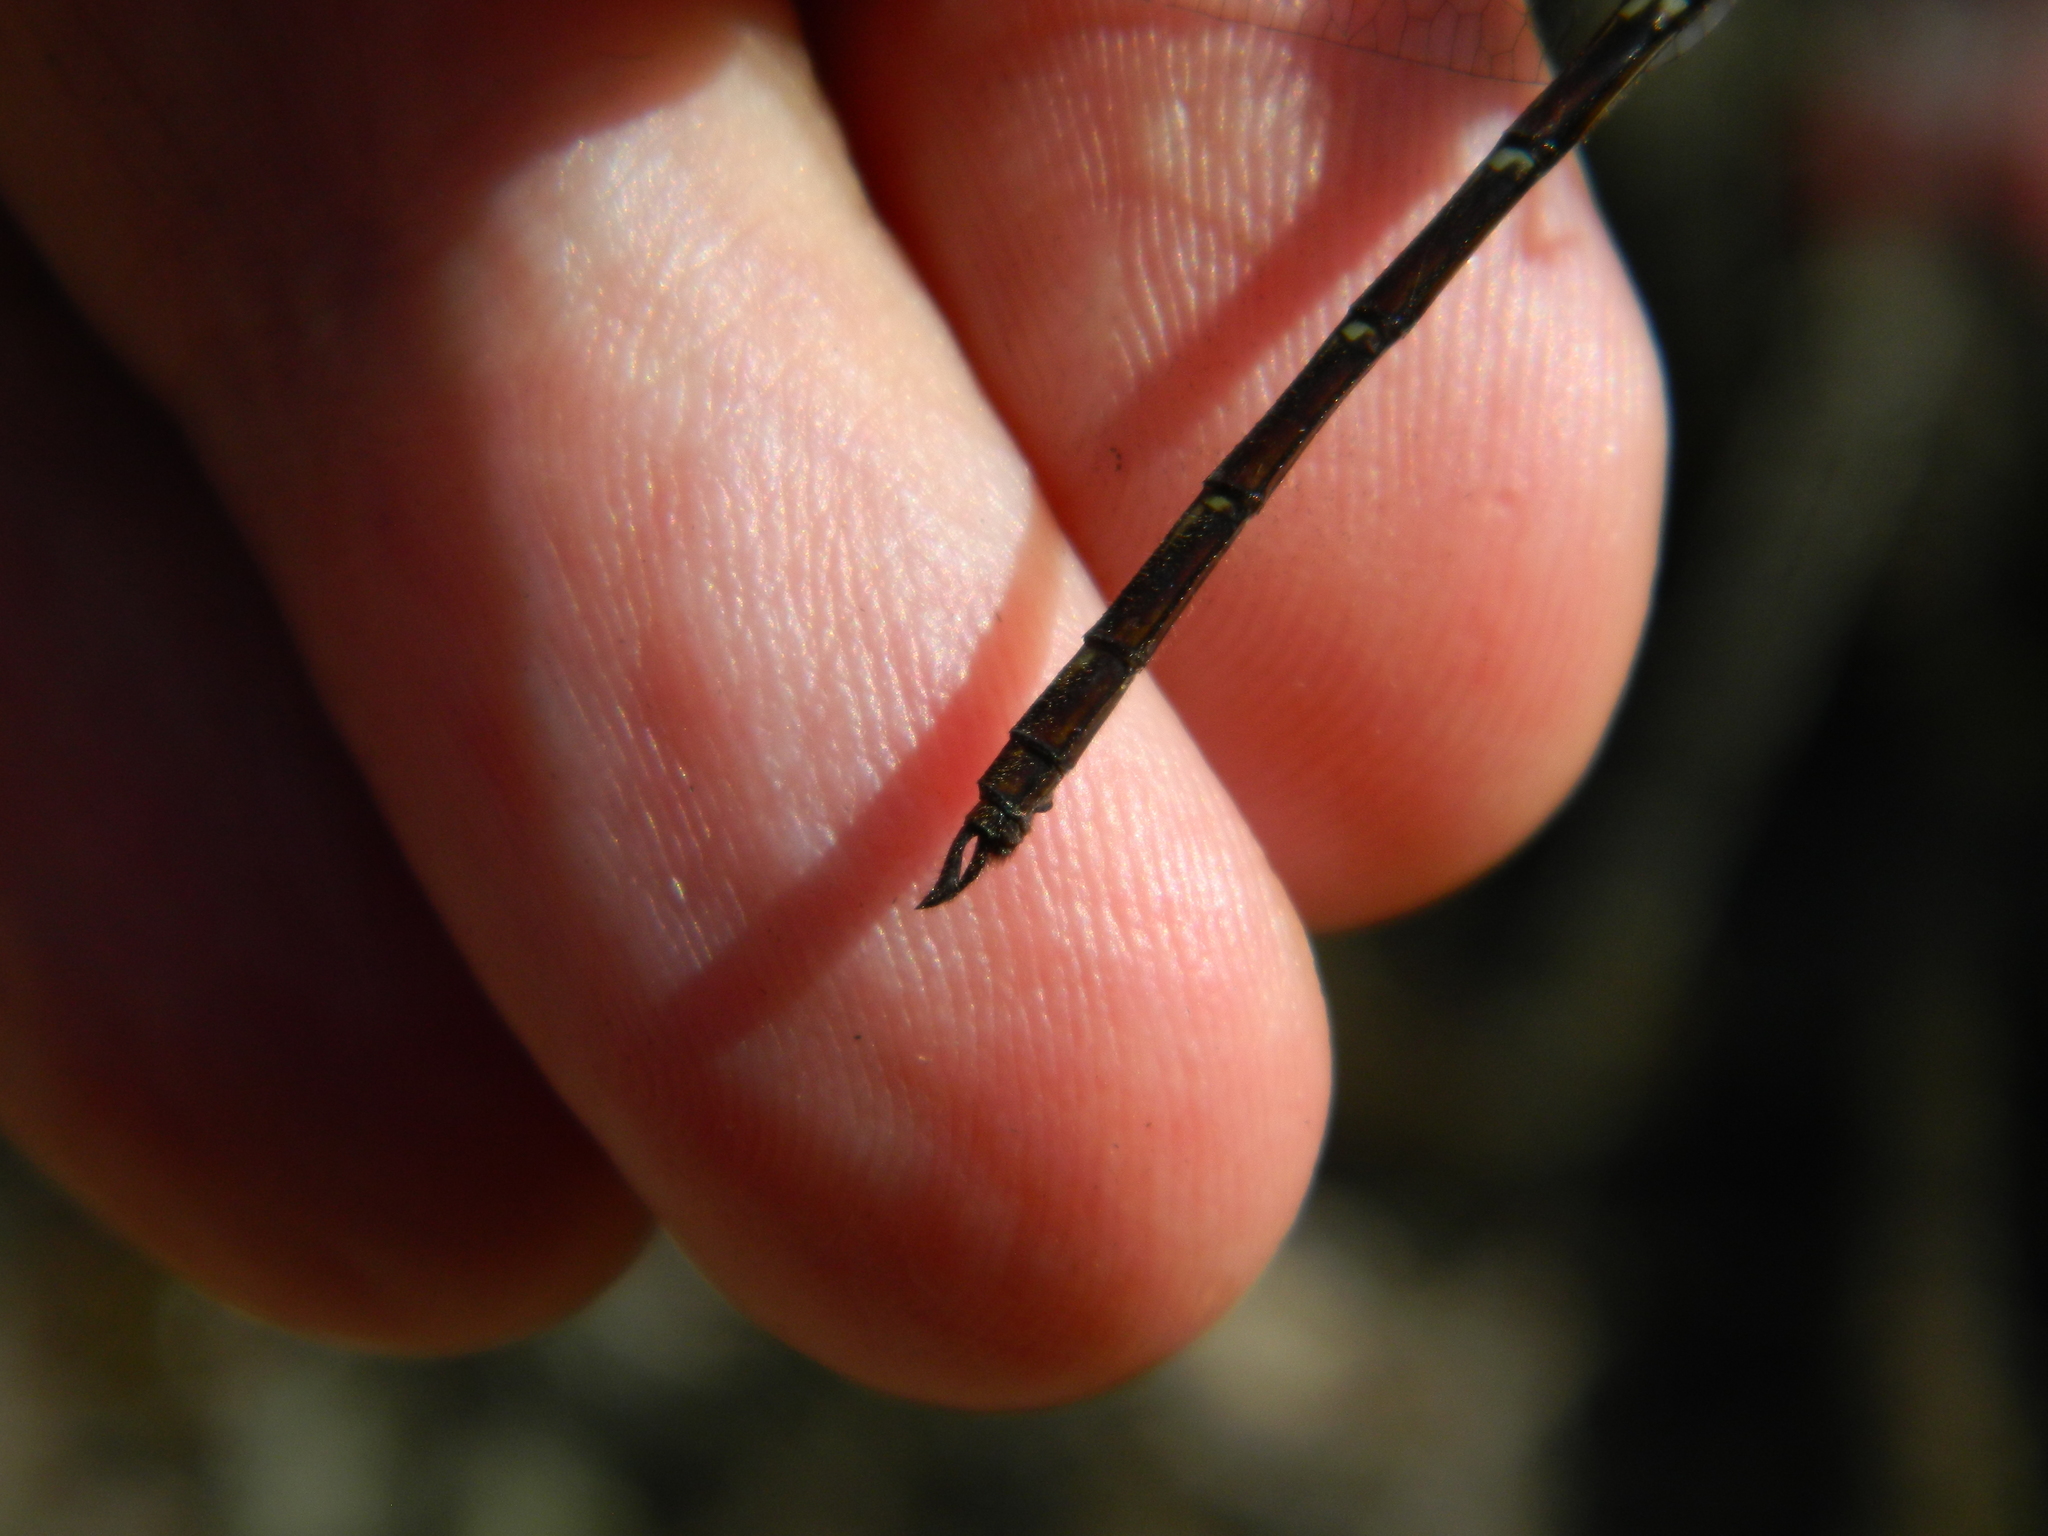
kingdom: Animalia
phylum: Arthropoda
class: Insecta
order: Odonata
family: Libellulidae
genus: Macrothemis
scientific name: Macrothemis celeno
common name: Antillean sylph
